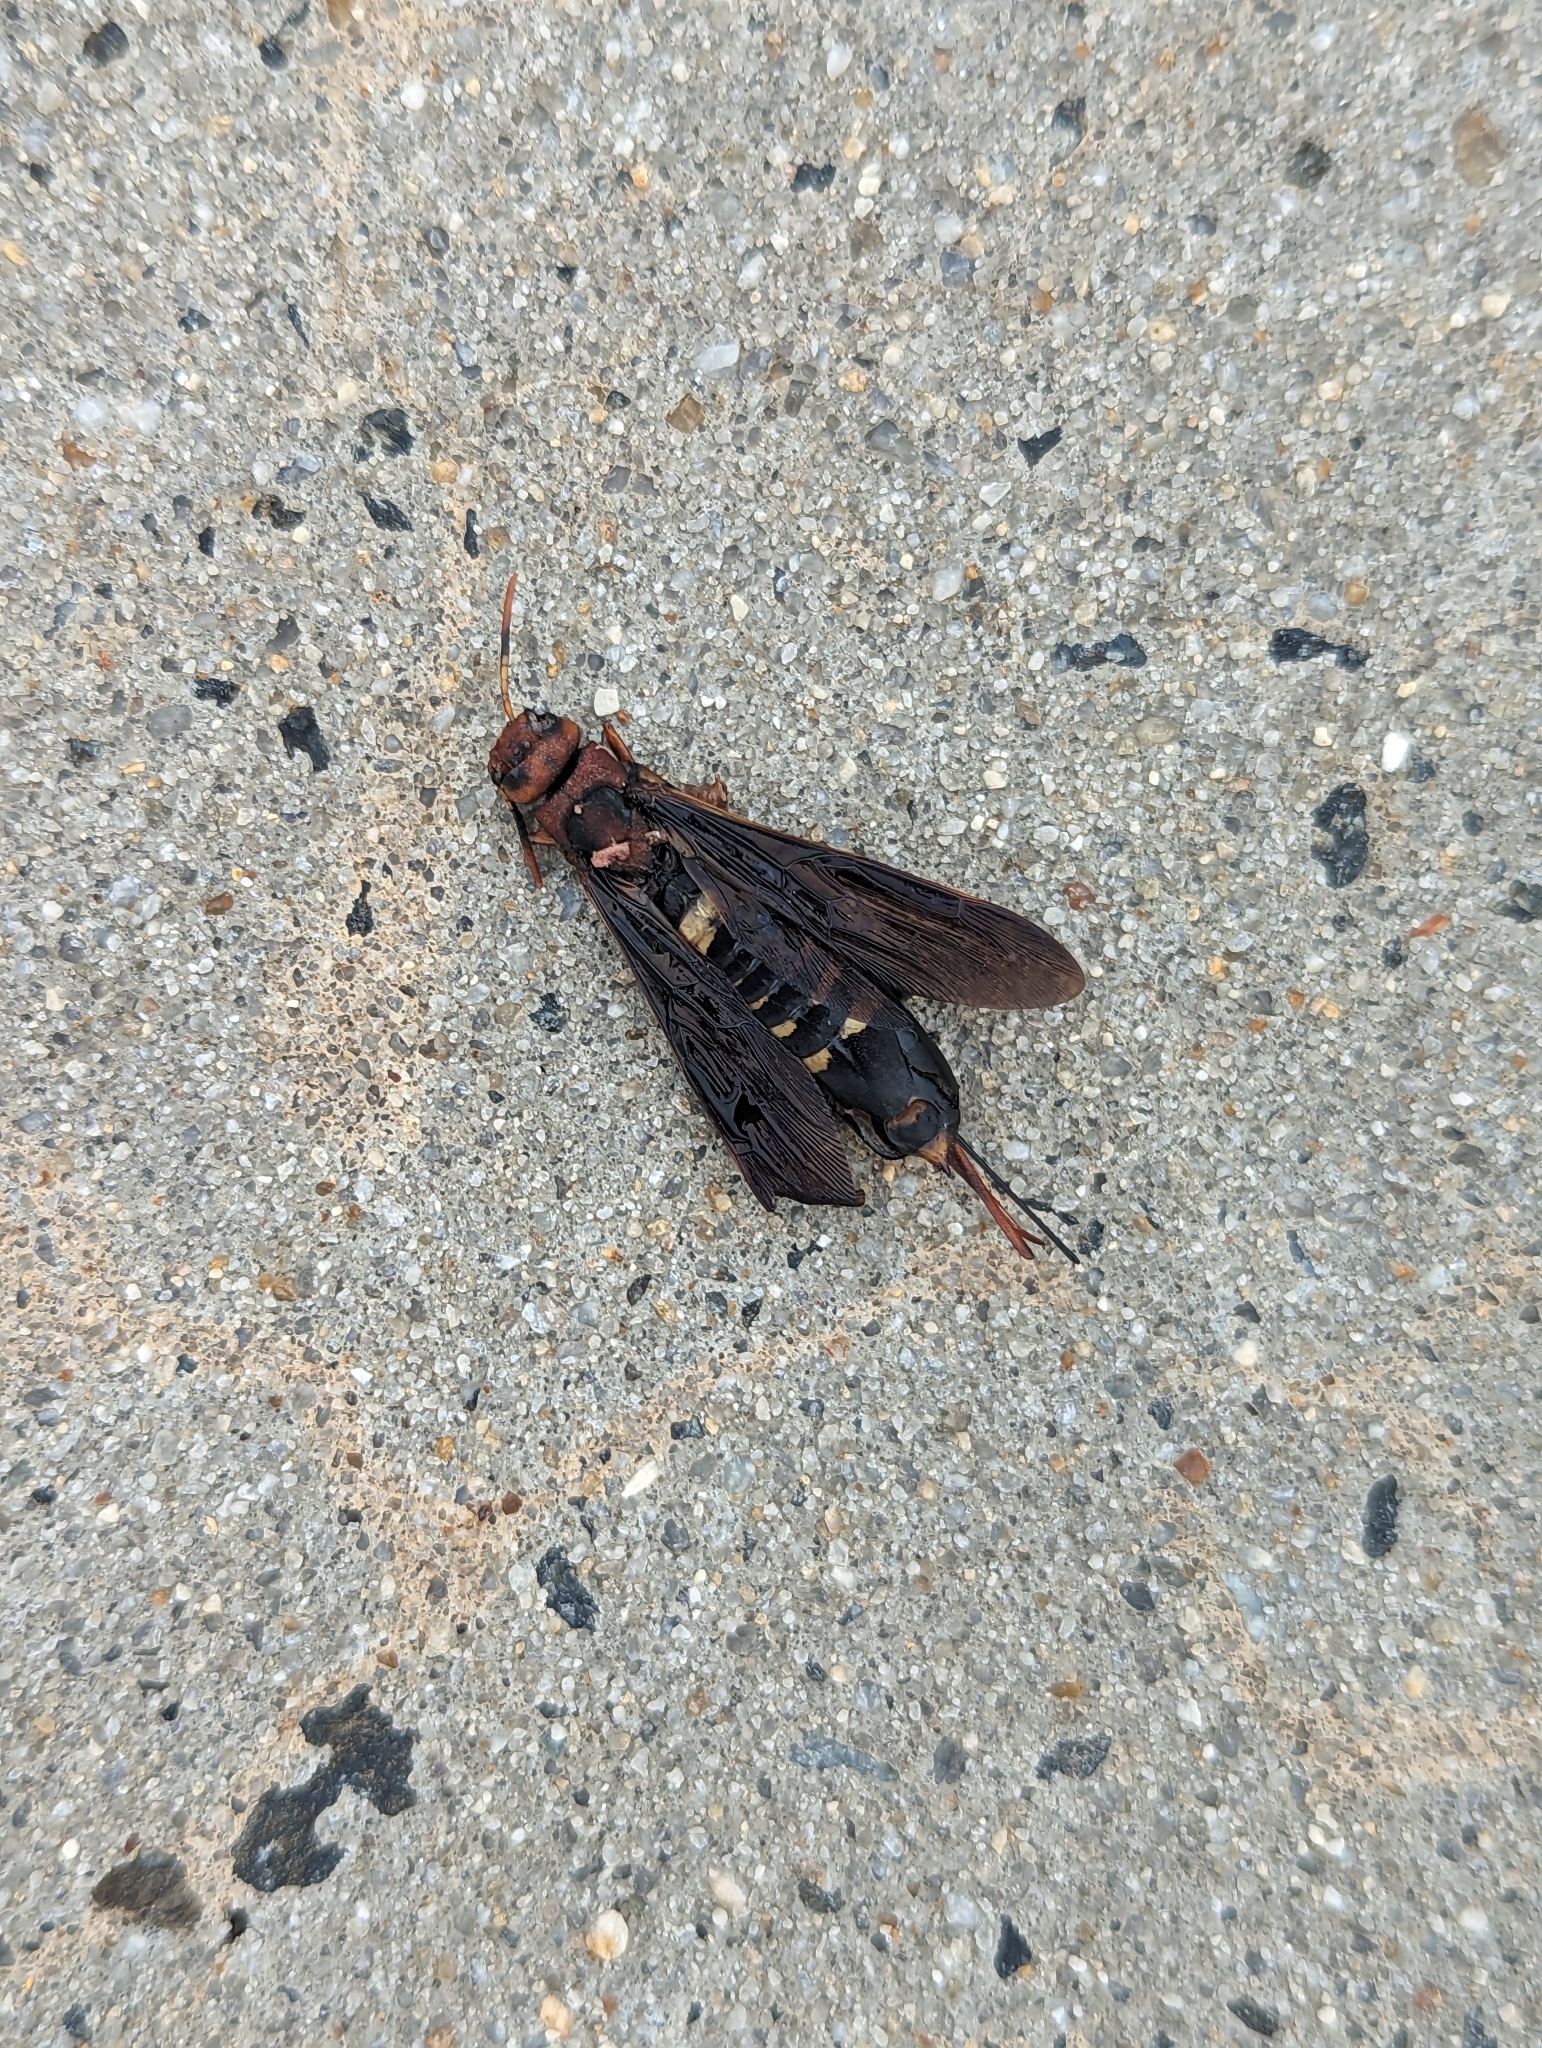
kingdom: Animalia
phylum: Arthropoda
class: Insecta
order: Hymenoptera
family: Siricidae
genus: Tremex
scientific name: Tremex columba
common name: Wasp
